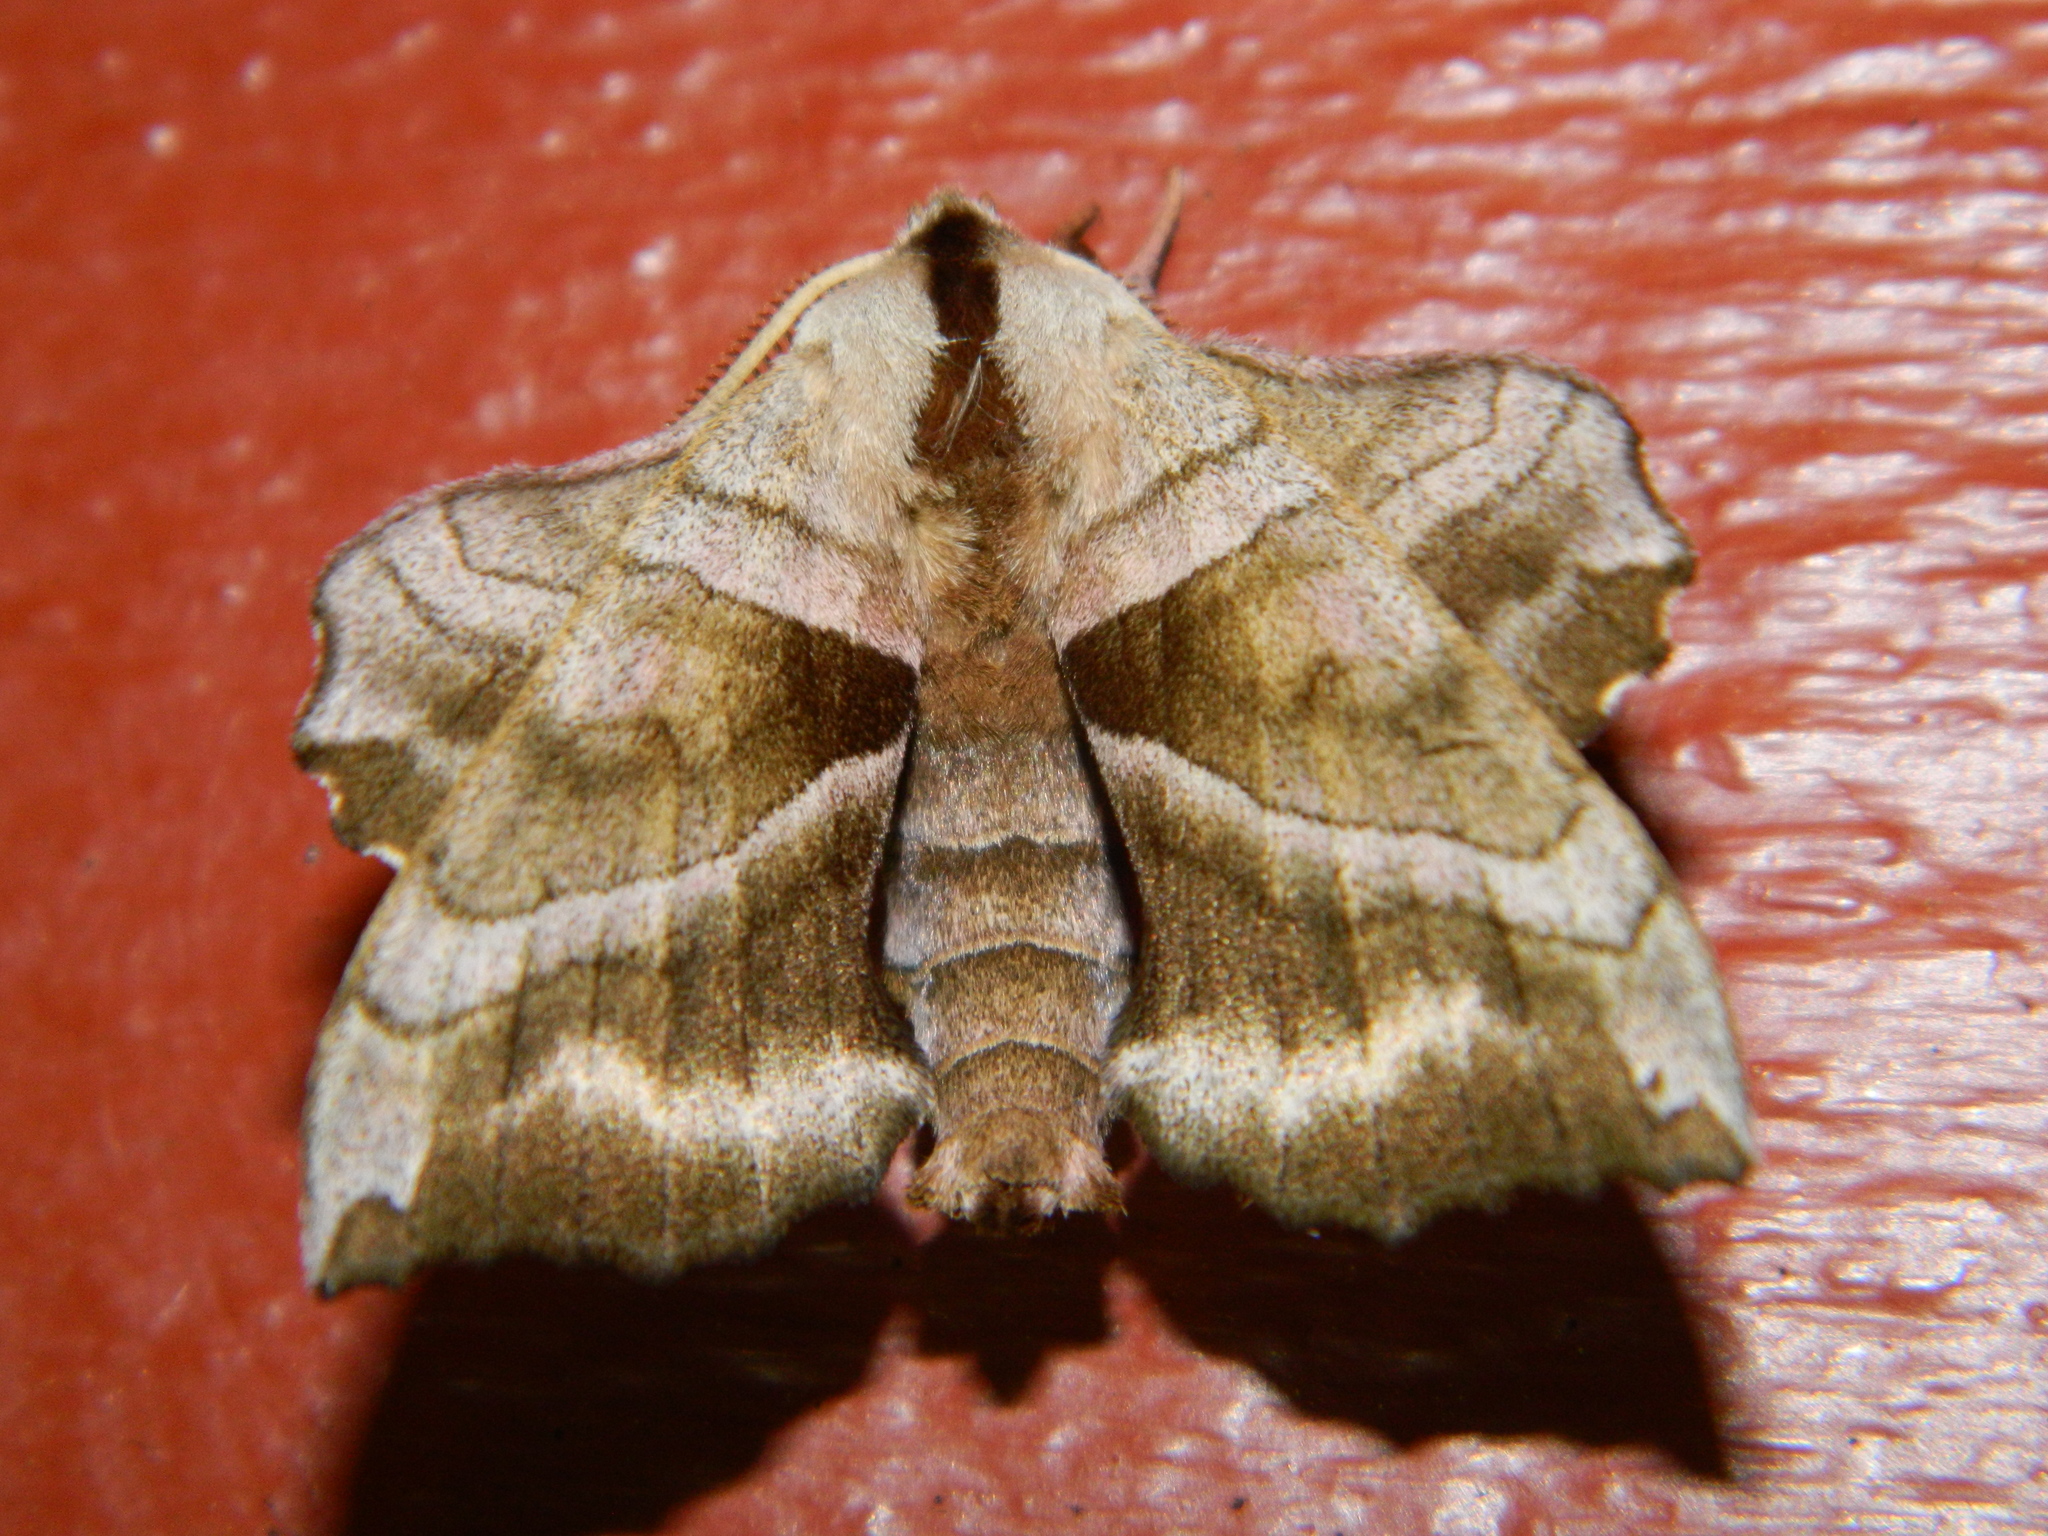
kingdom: Animalia
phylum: Arthropoda
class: Insecta
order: Lepidoptera
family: Sphingidae
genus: Amorpha
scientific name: Amorpha juglandis
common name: Walnut sphinx
